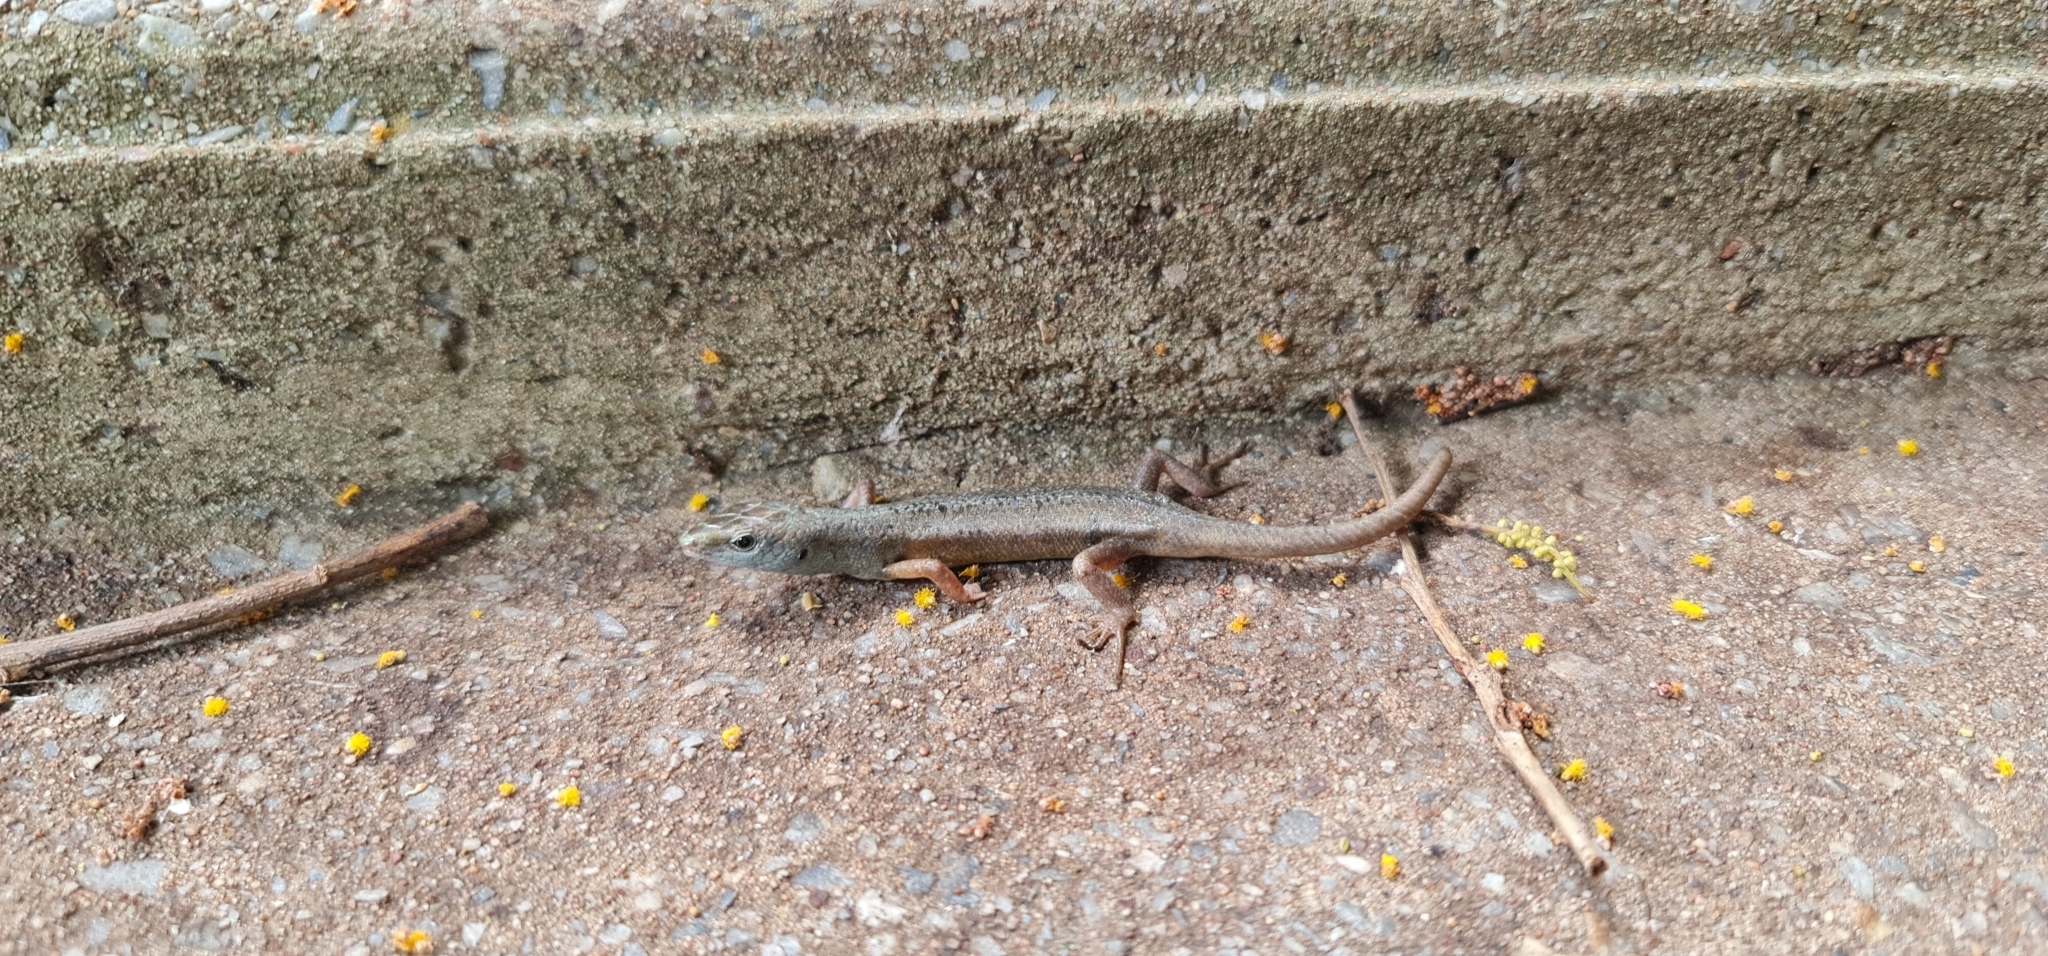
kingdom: Animalia
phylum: Chordata
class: Squamata
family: Scincidae
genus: Carlia
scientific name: Carlia sexdentata
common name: Closed-litter rainbow-skink
